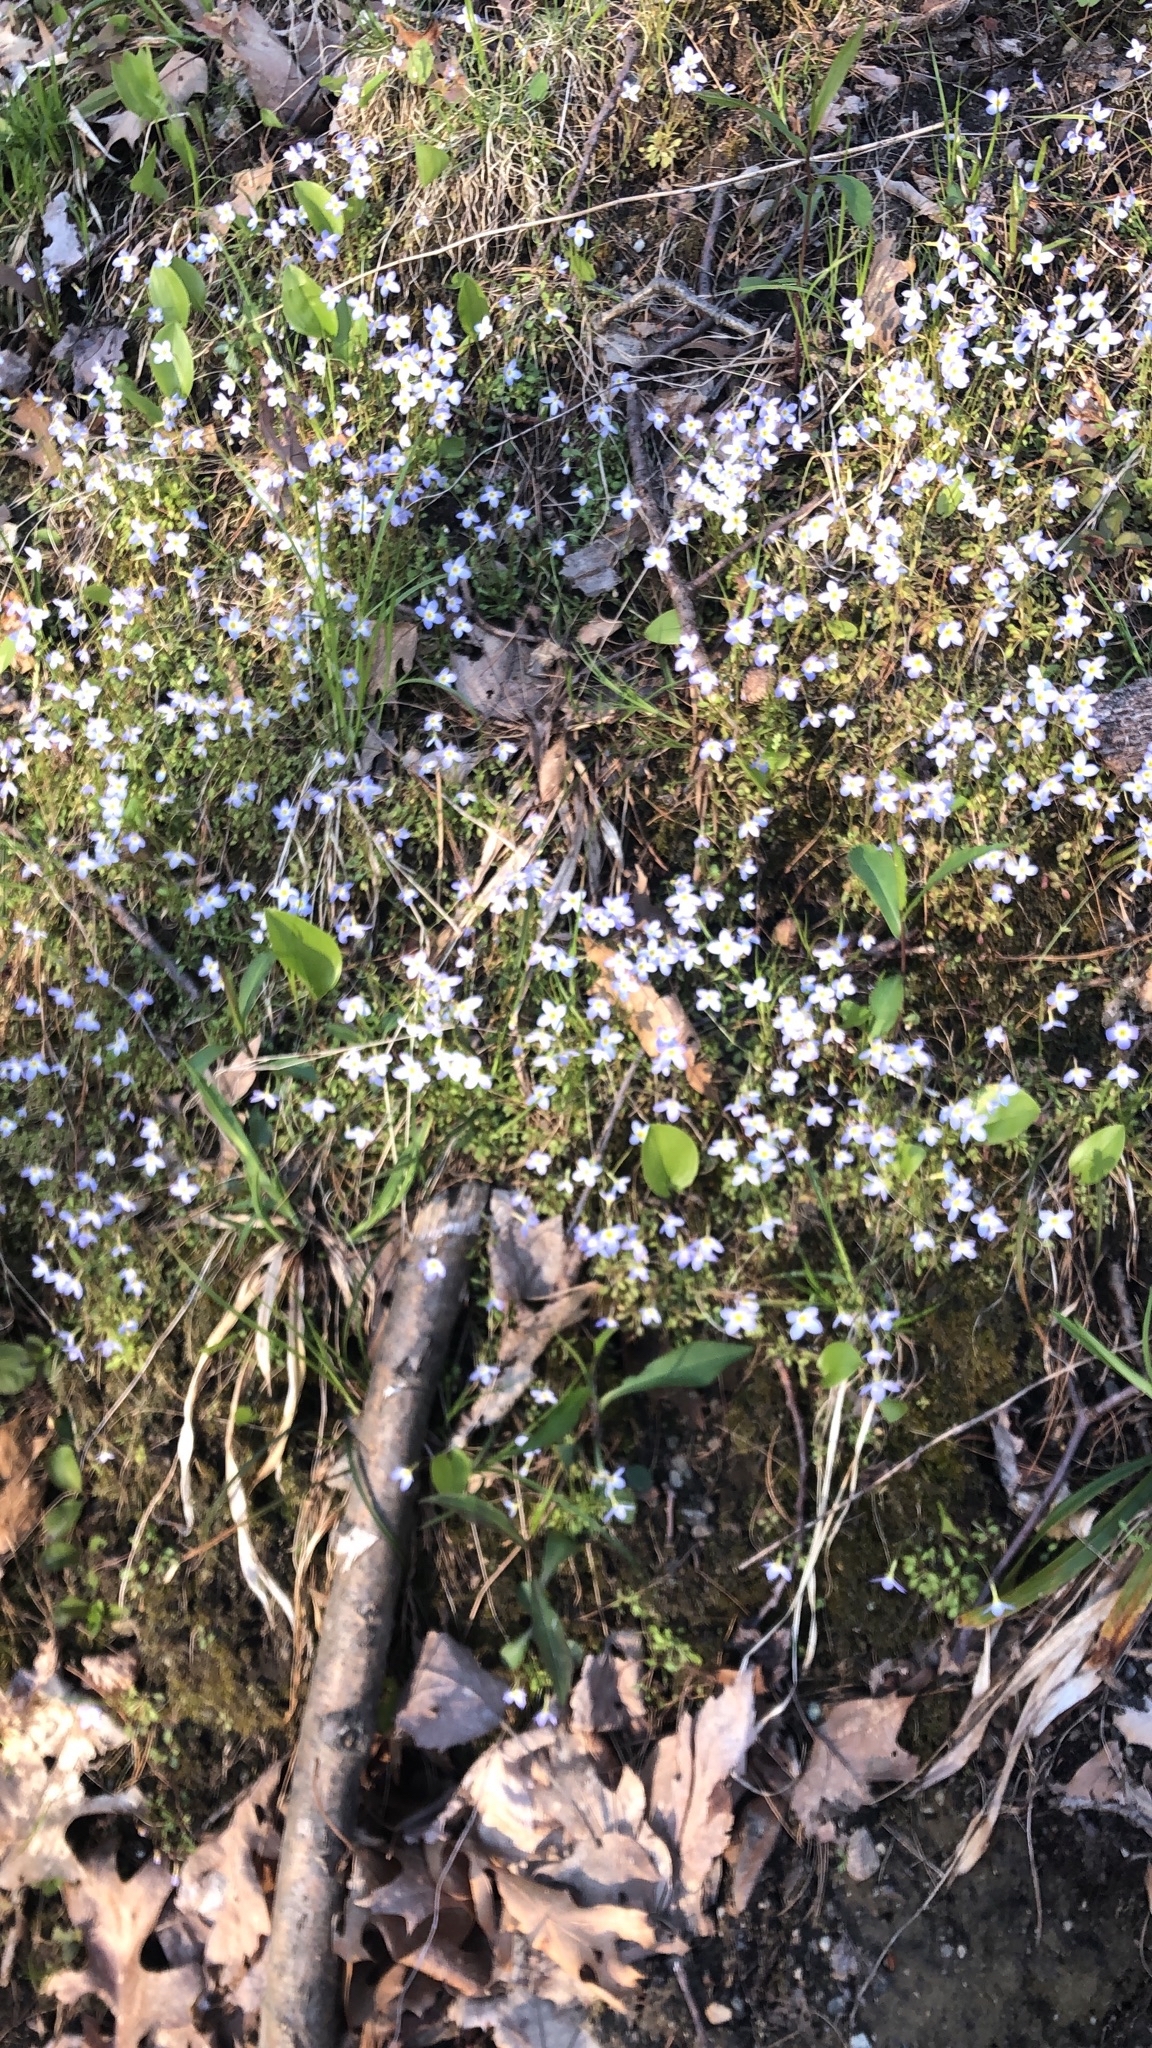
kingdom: Plantae
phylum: Tracheophyta
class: Magnoliopsida
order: Gentianales
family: Rubiaceae
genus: Houstonia
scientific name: Houstonia caerulea
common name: Bluets
